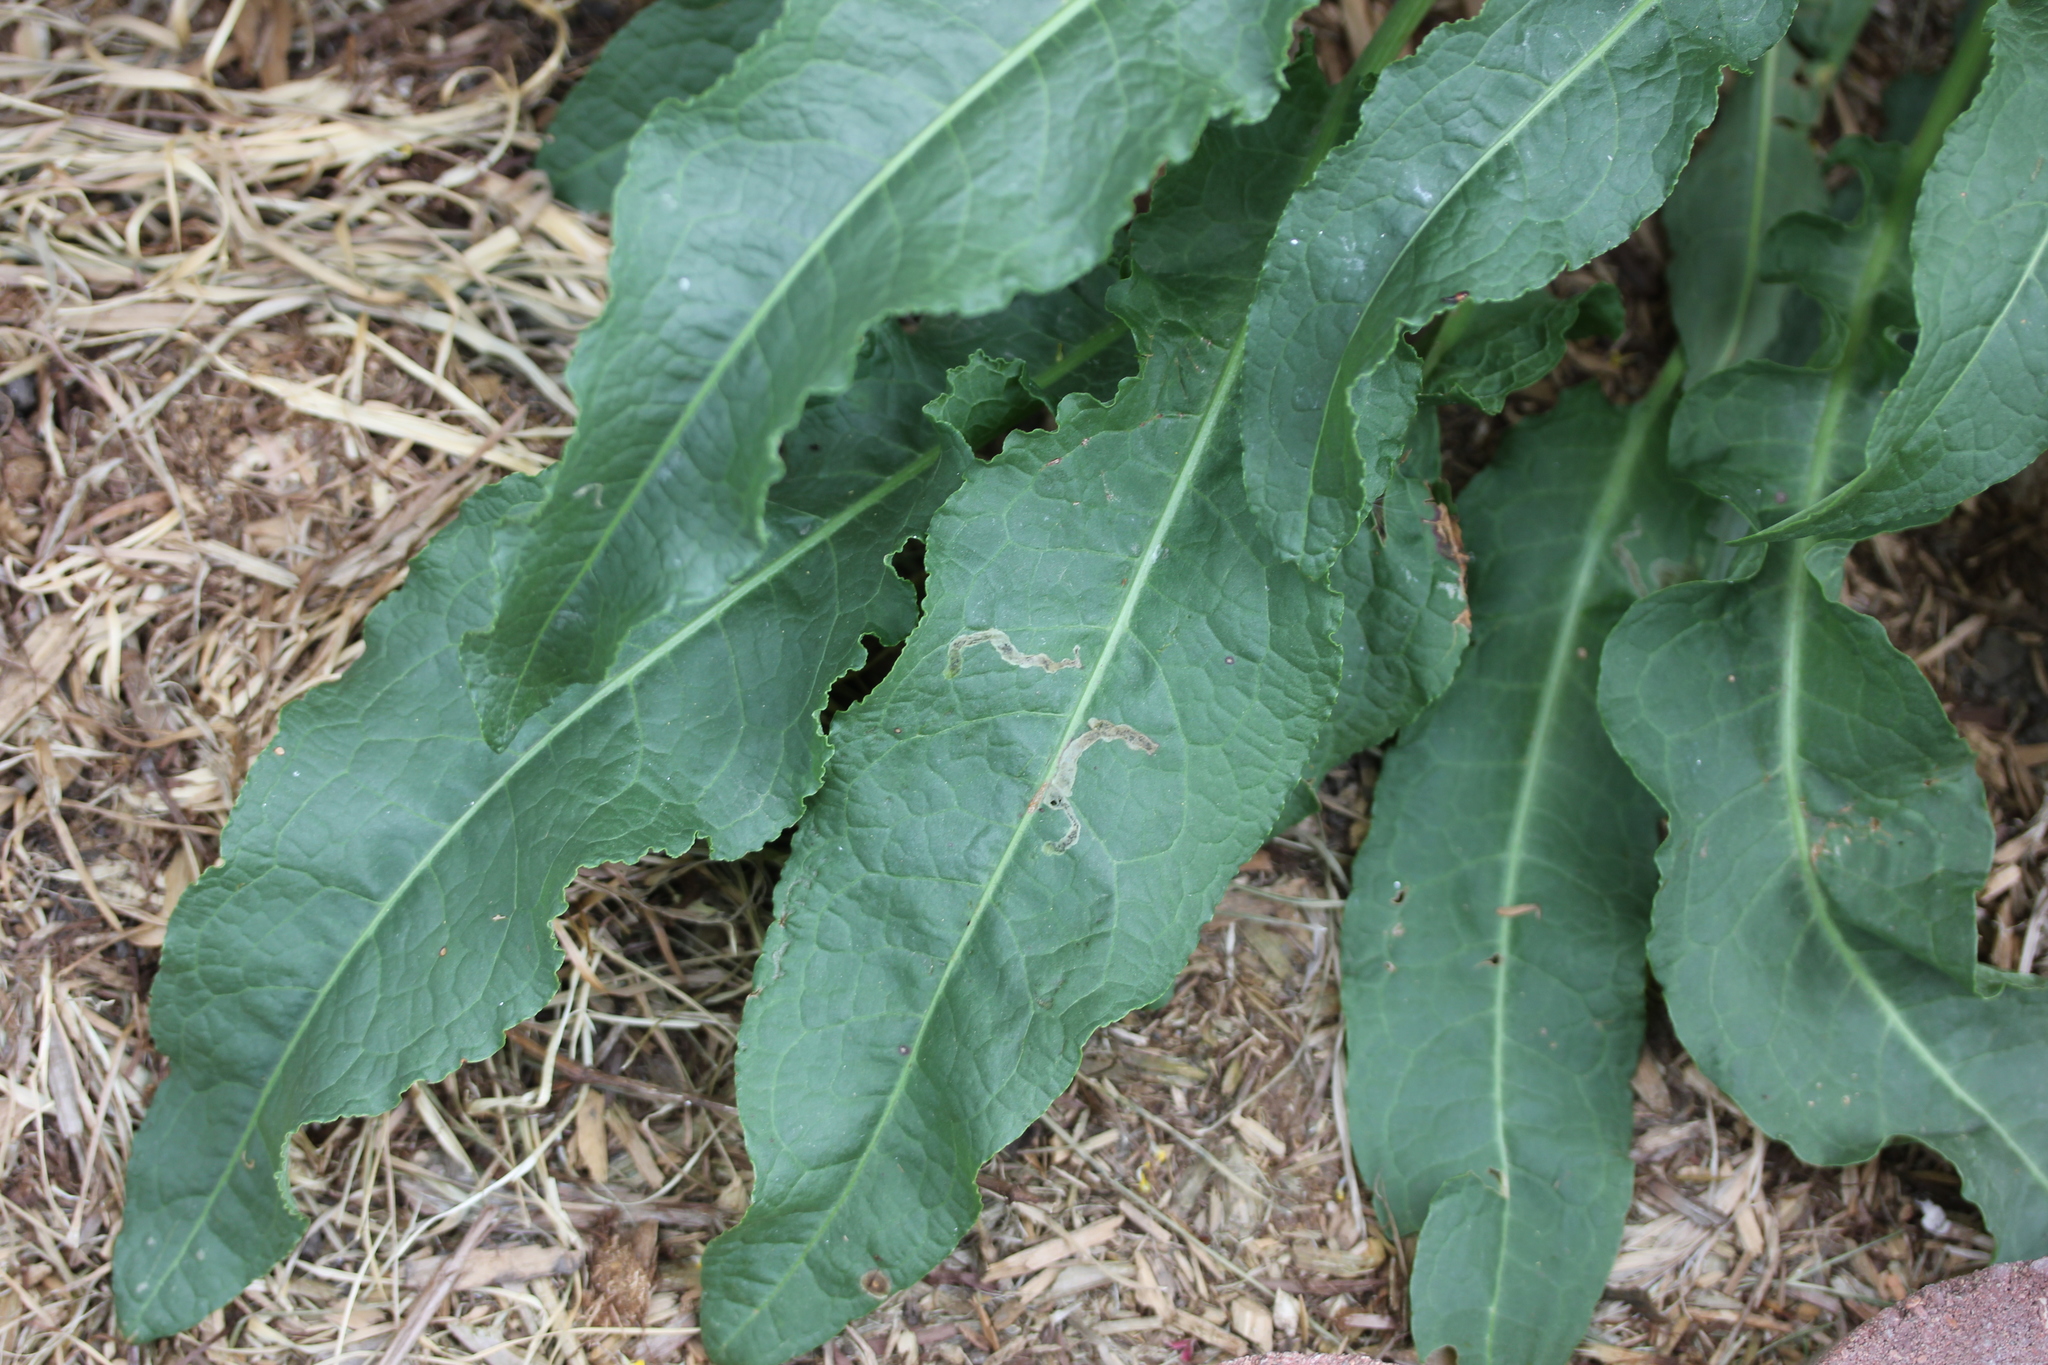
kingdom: Plantae
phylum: Tracheophyta
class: Magnoliopsida
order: Caryophyllales
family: Polygonaceae
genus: Rumex
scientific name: Rumex crispus
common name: Curled dock
